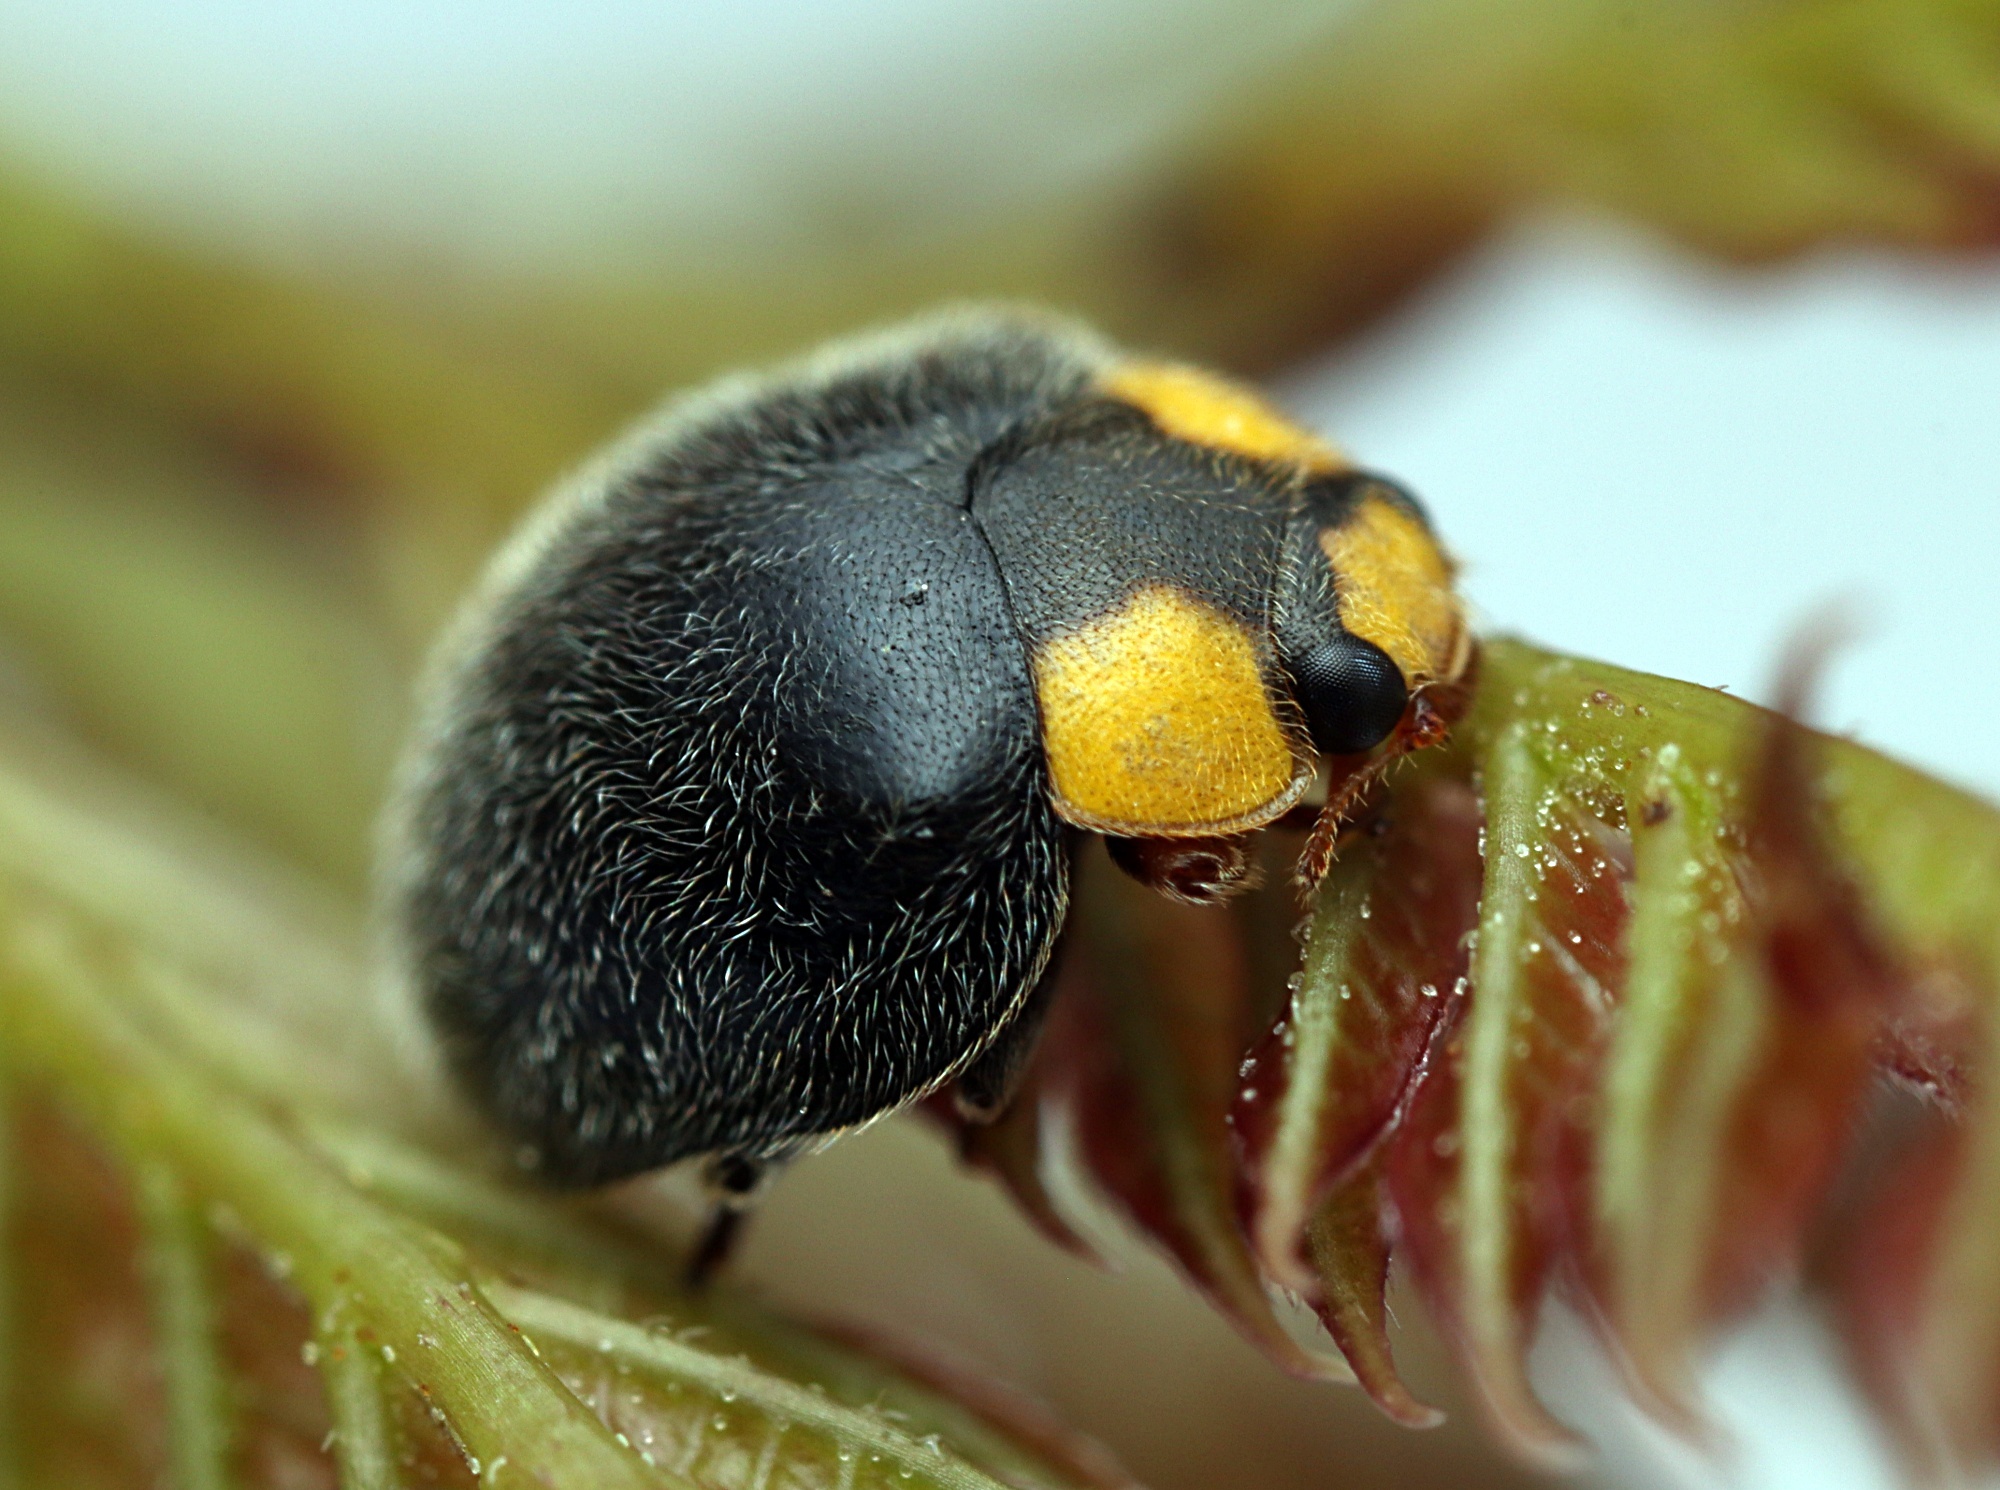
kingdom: Animalia
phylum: Arthropoda
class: Insecta
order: Coleoptera
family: Coccinellidae
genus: Scymnodes
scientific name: Scymnodes lividigaster
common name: Yellowshouldered lady beetle
